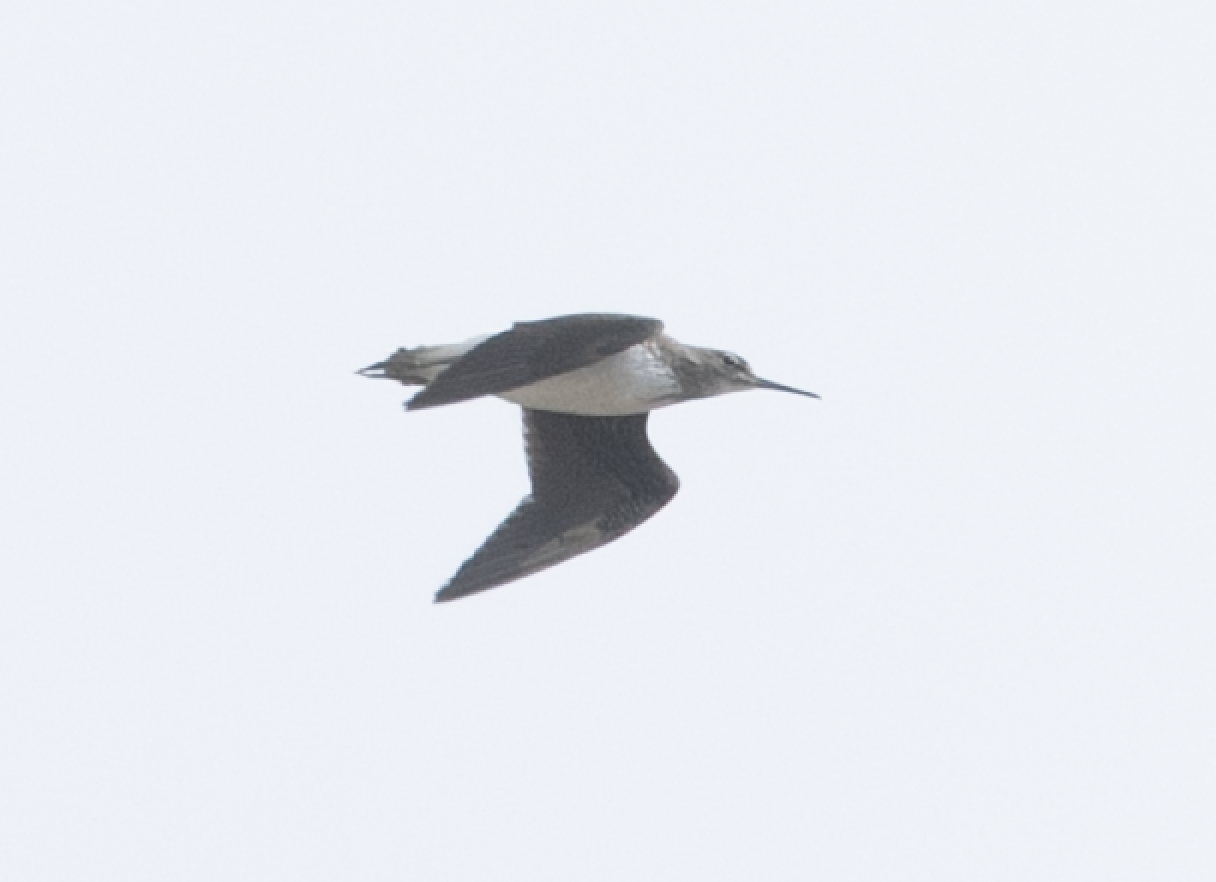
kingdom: Animalia
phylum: Chordata
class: Aves
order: Charadriiformes
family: Scolopacidae
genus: Tringa
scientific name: Tringa ochropus
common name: Green sandpiper
